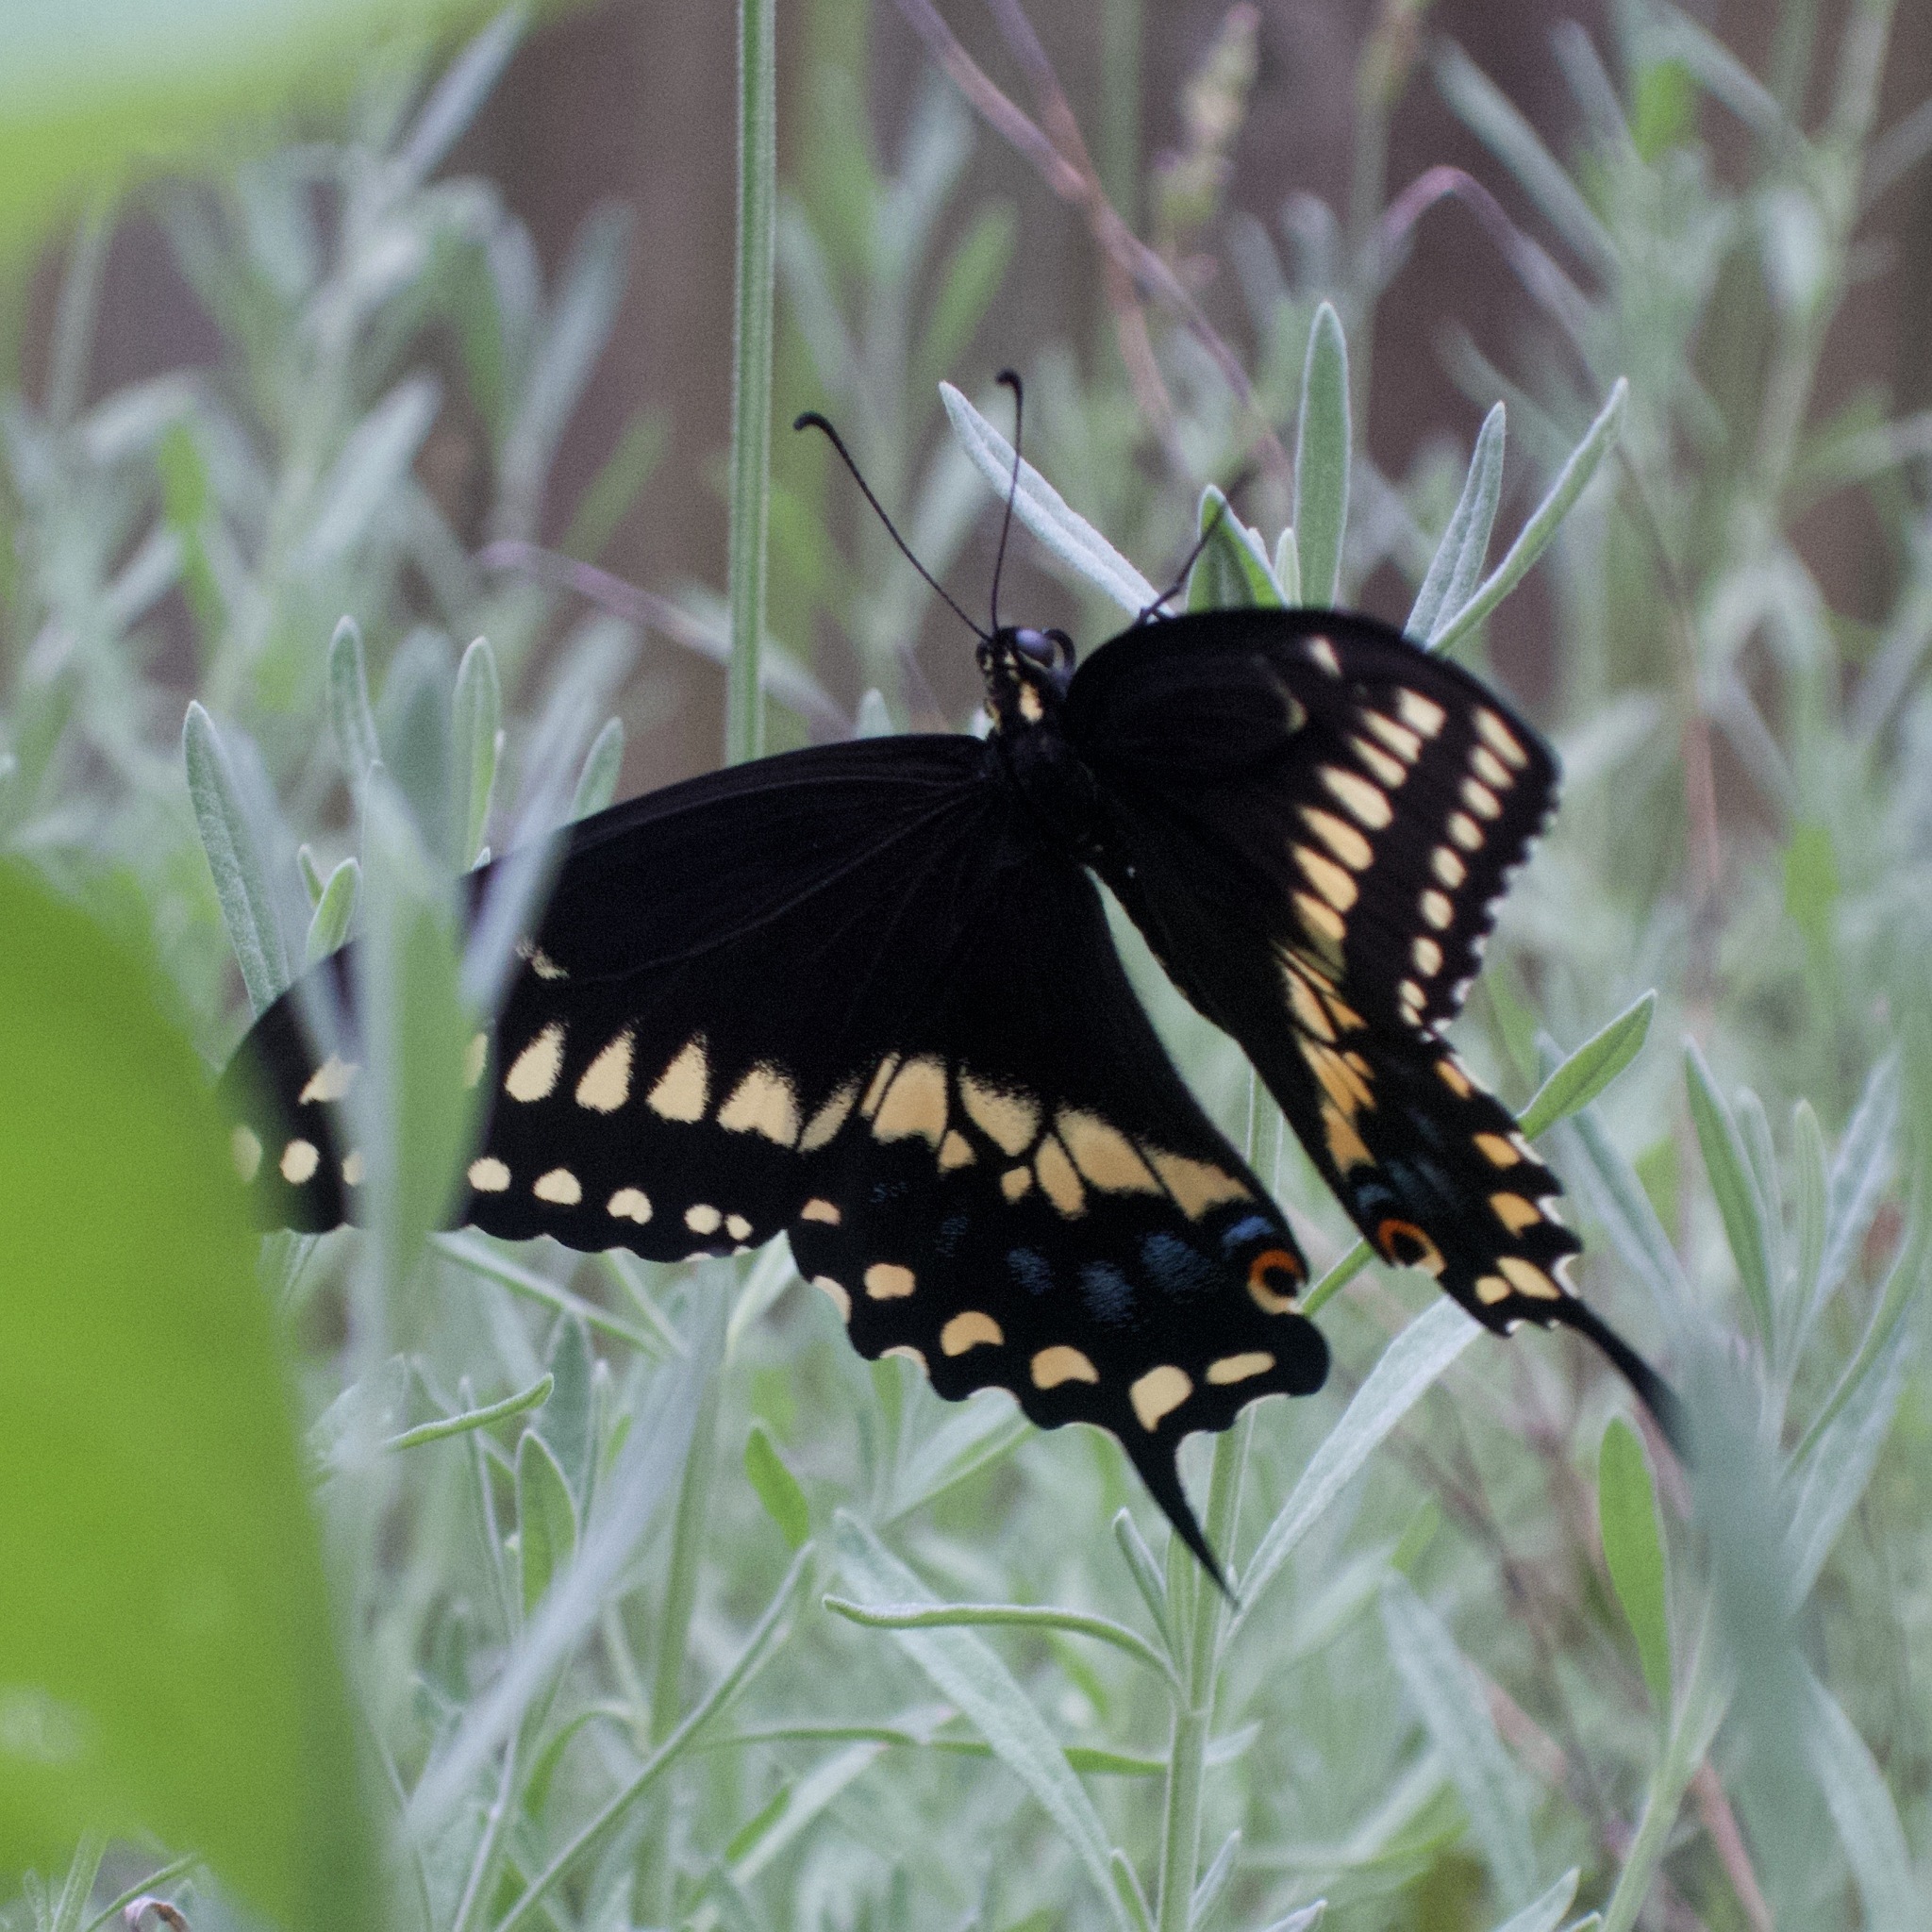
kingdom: Animalia
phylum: Arthropoda
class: Insecta
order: Lepidoptera
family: Papilionidae
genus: Papilio
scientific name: Papilio polyxenes
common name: Black swallowtail
